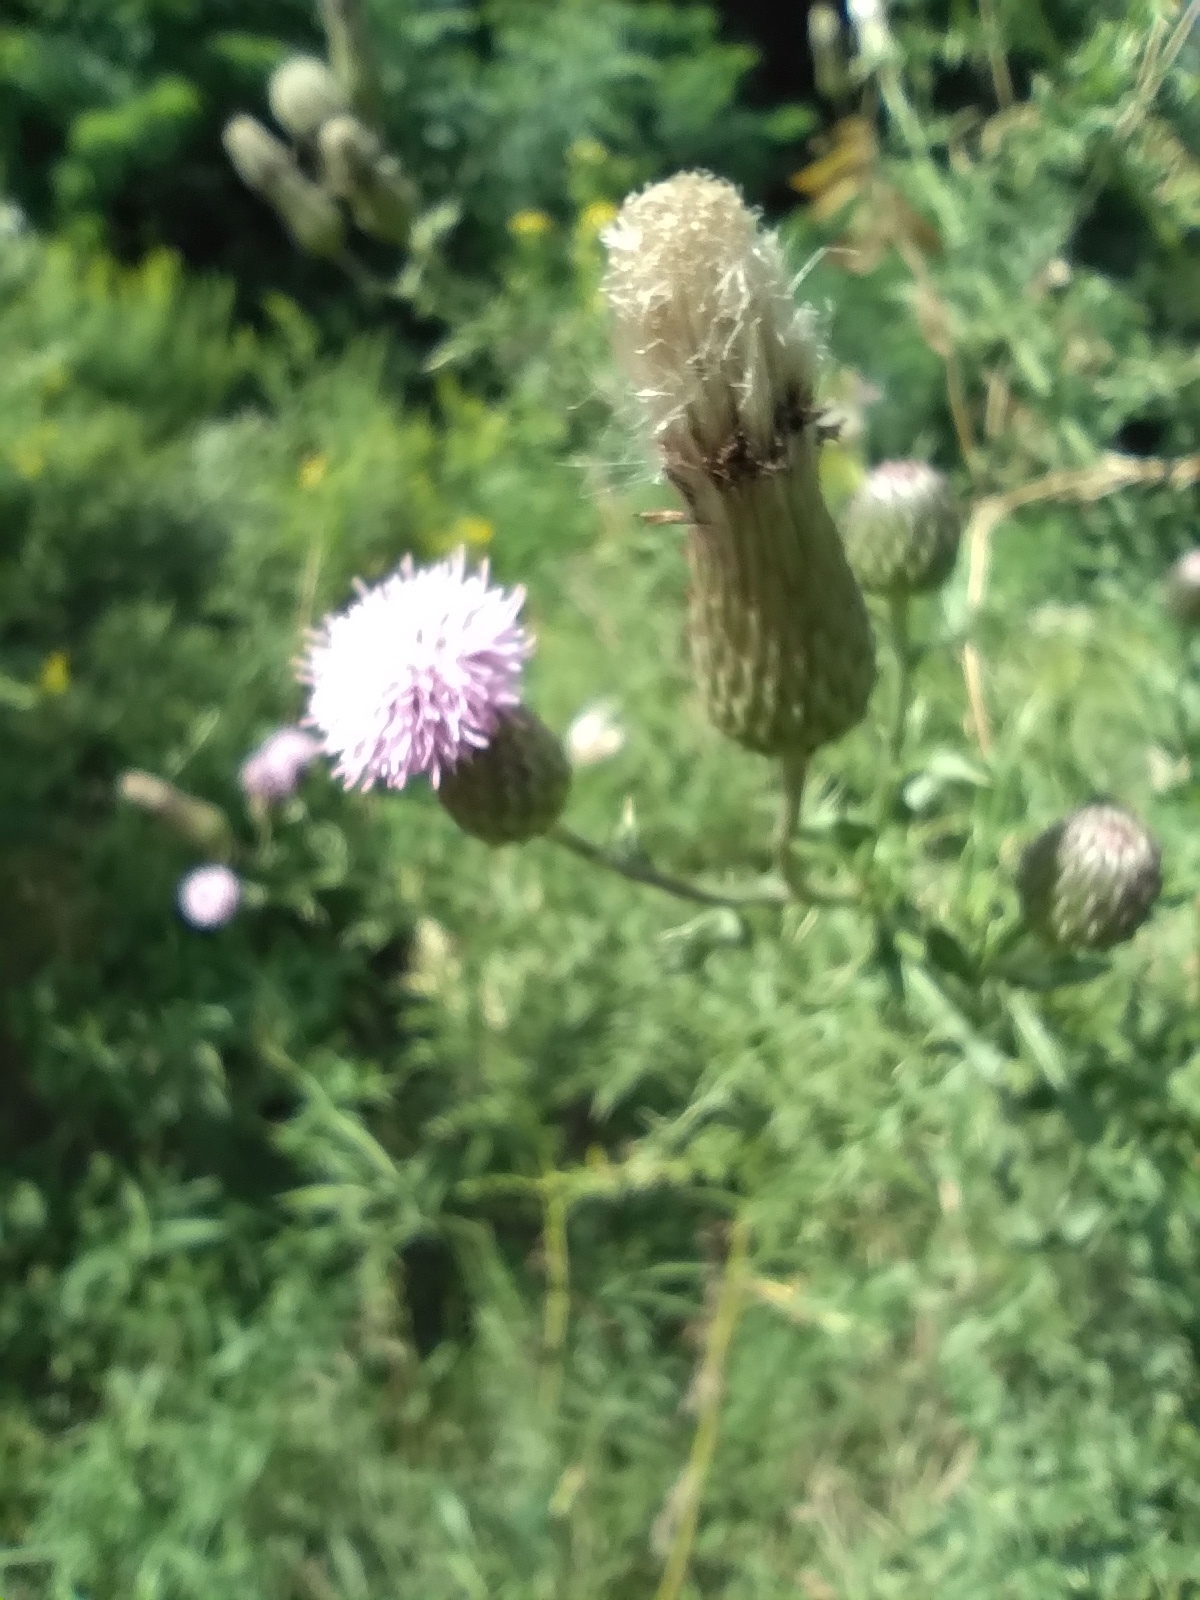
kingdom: Plantae
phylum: Tracheophyta
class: Magnoliopsida
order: Asterales
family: Asteraceae
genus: Cirsium
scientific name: Cirsium arvense
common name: Creeping thistle
